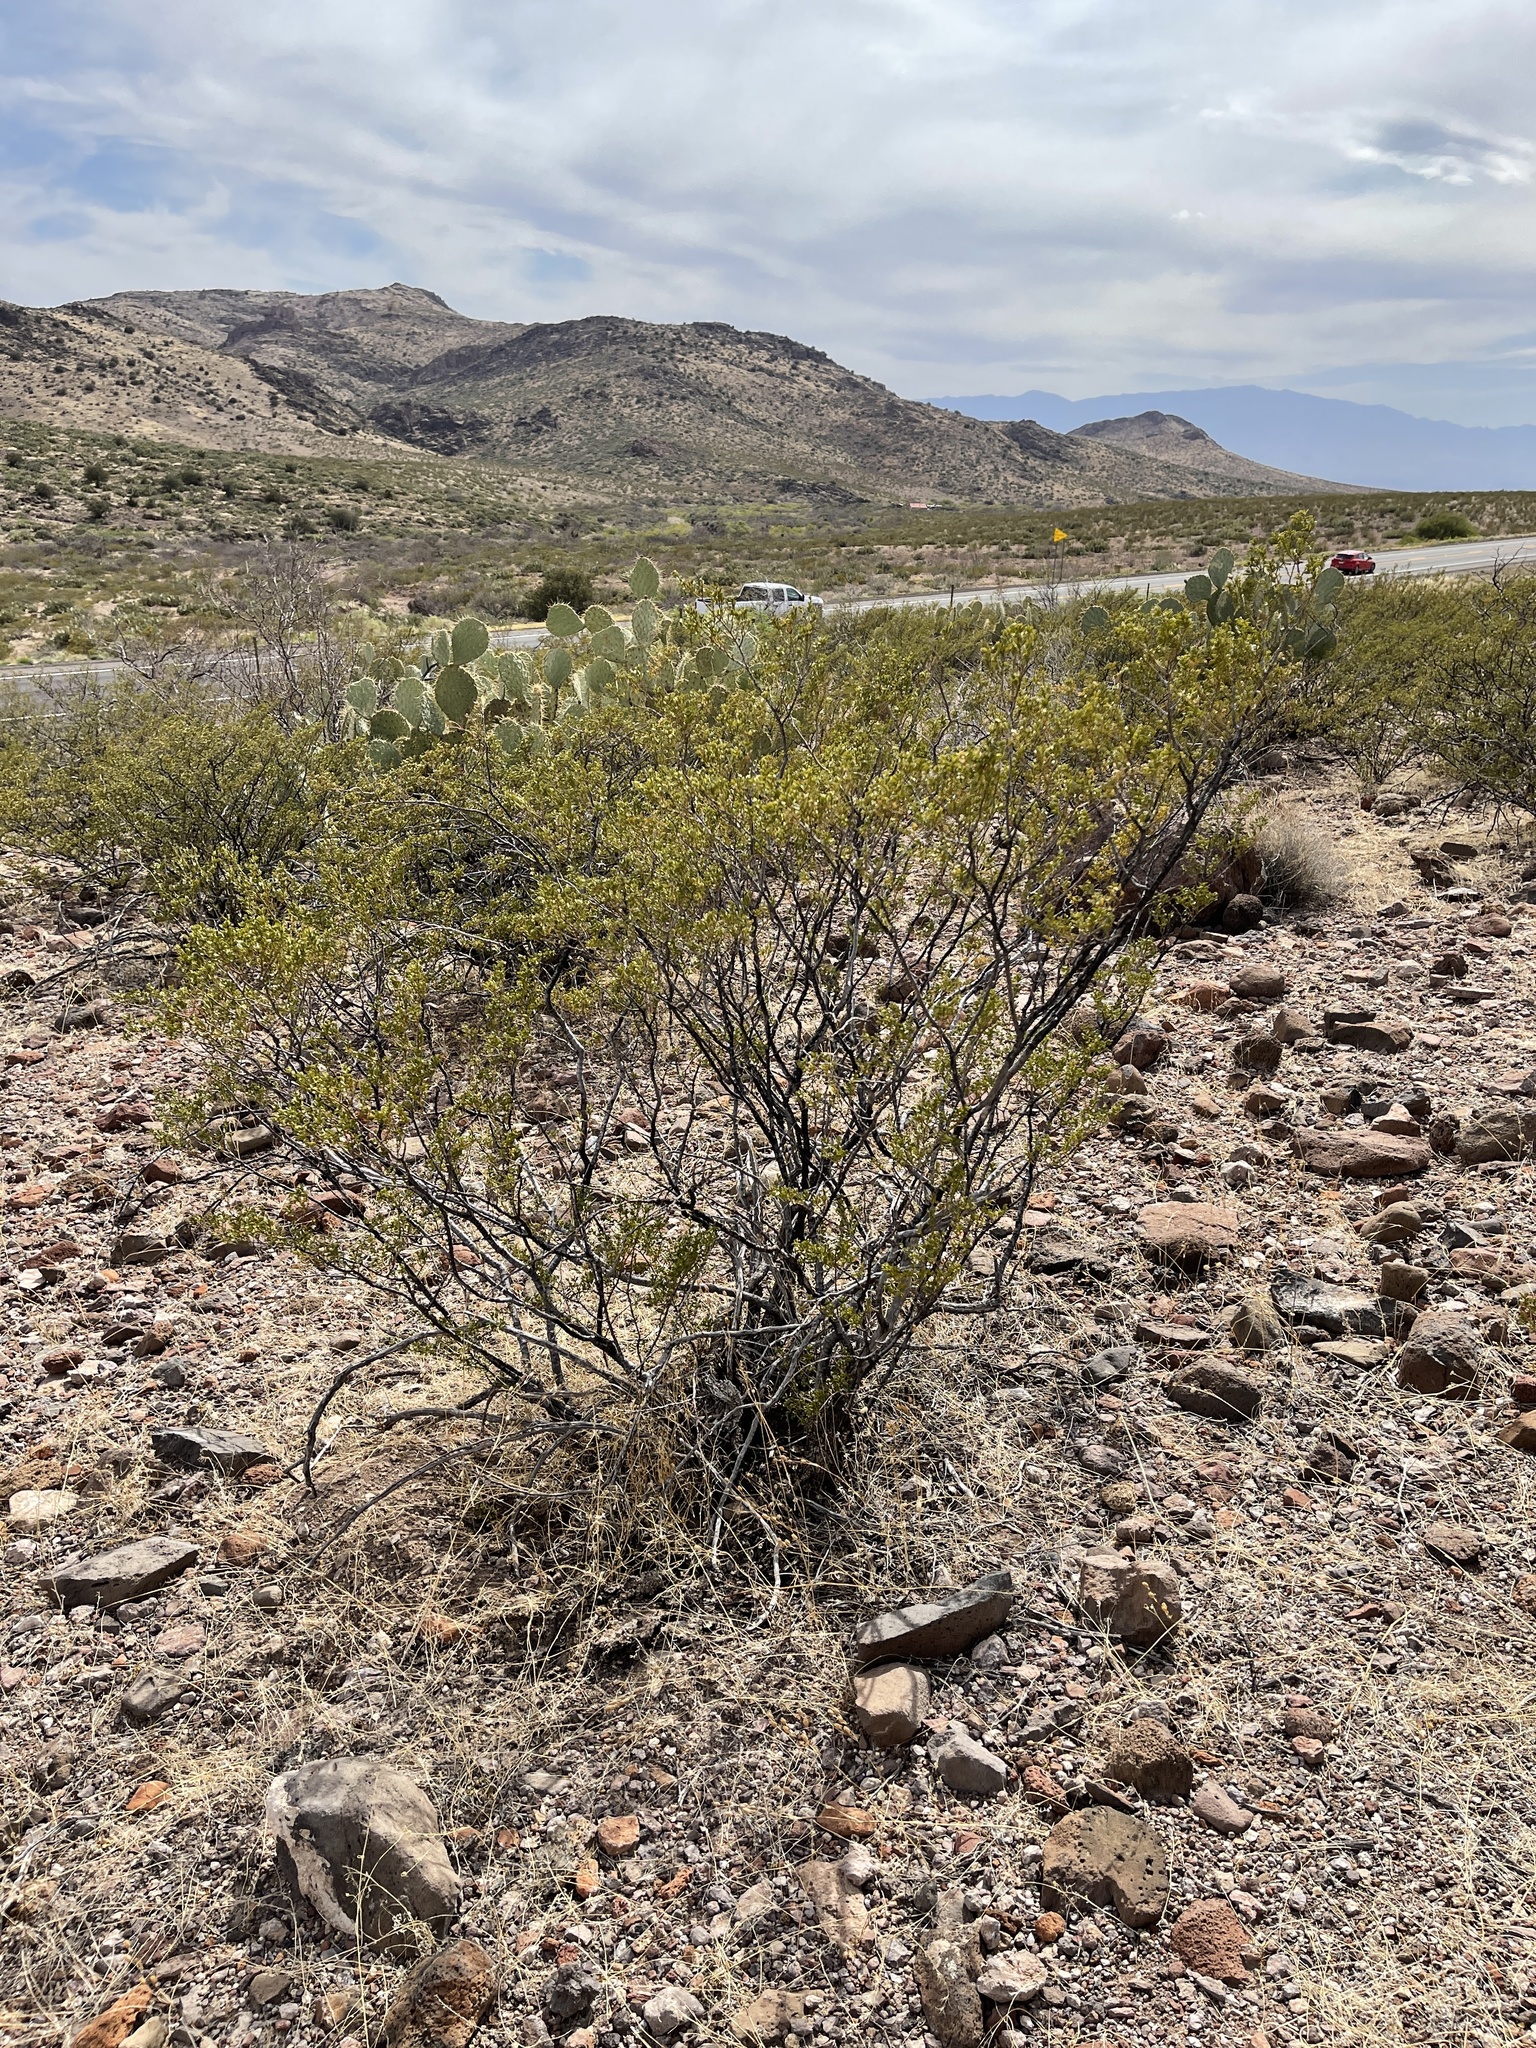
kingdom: Plantae
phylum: Tracheophyta
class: Magnoliopsida
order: Zygophyllales
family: Zygophyllaceae
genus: Larrea
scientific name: Larrea tridentata
